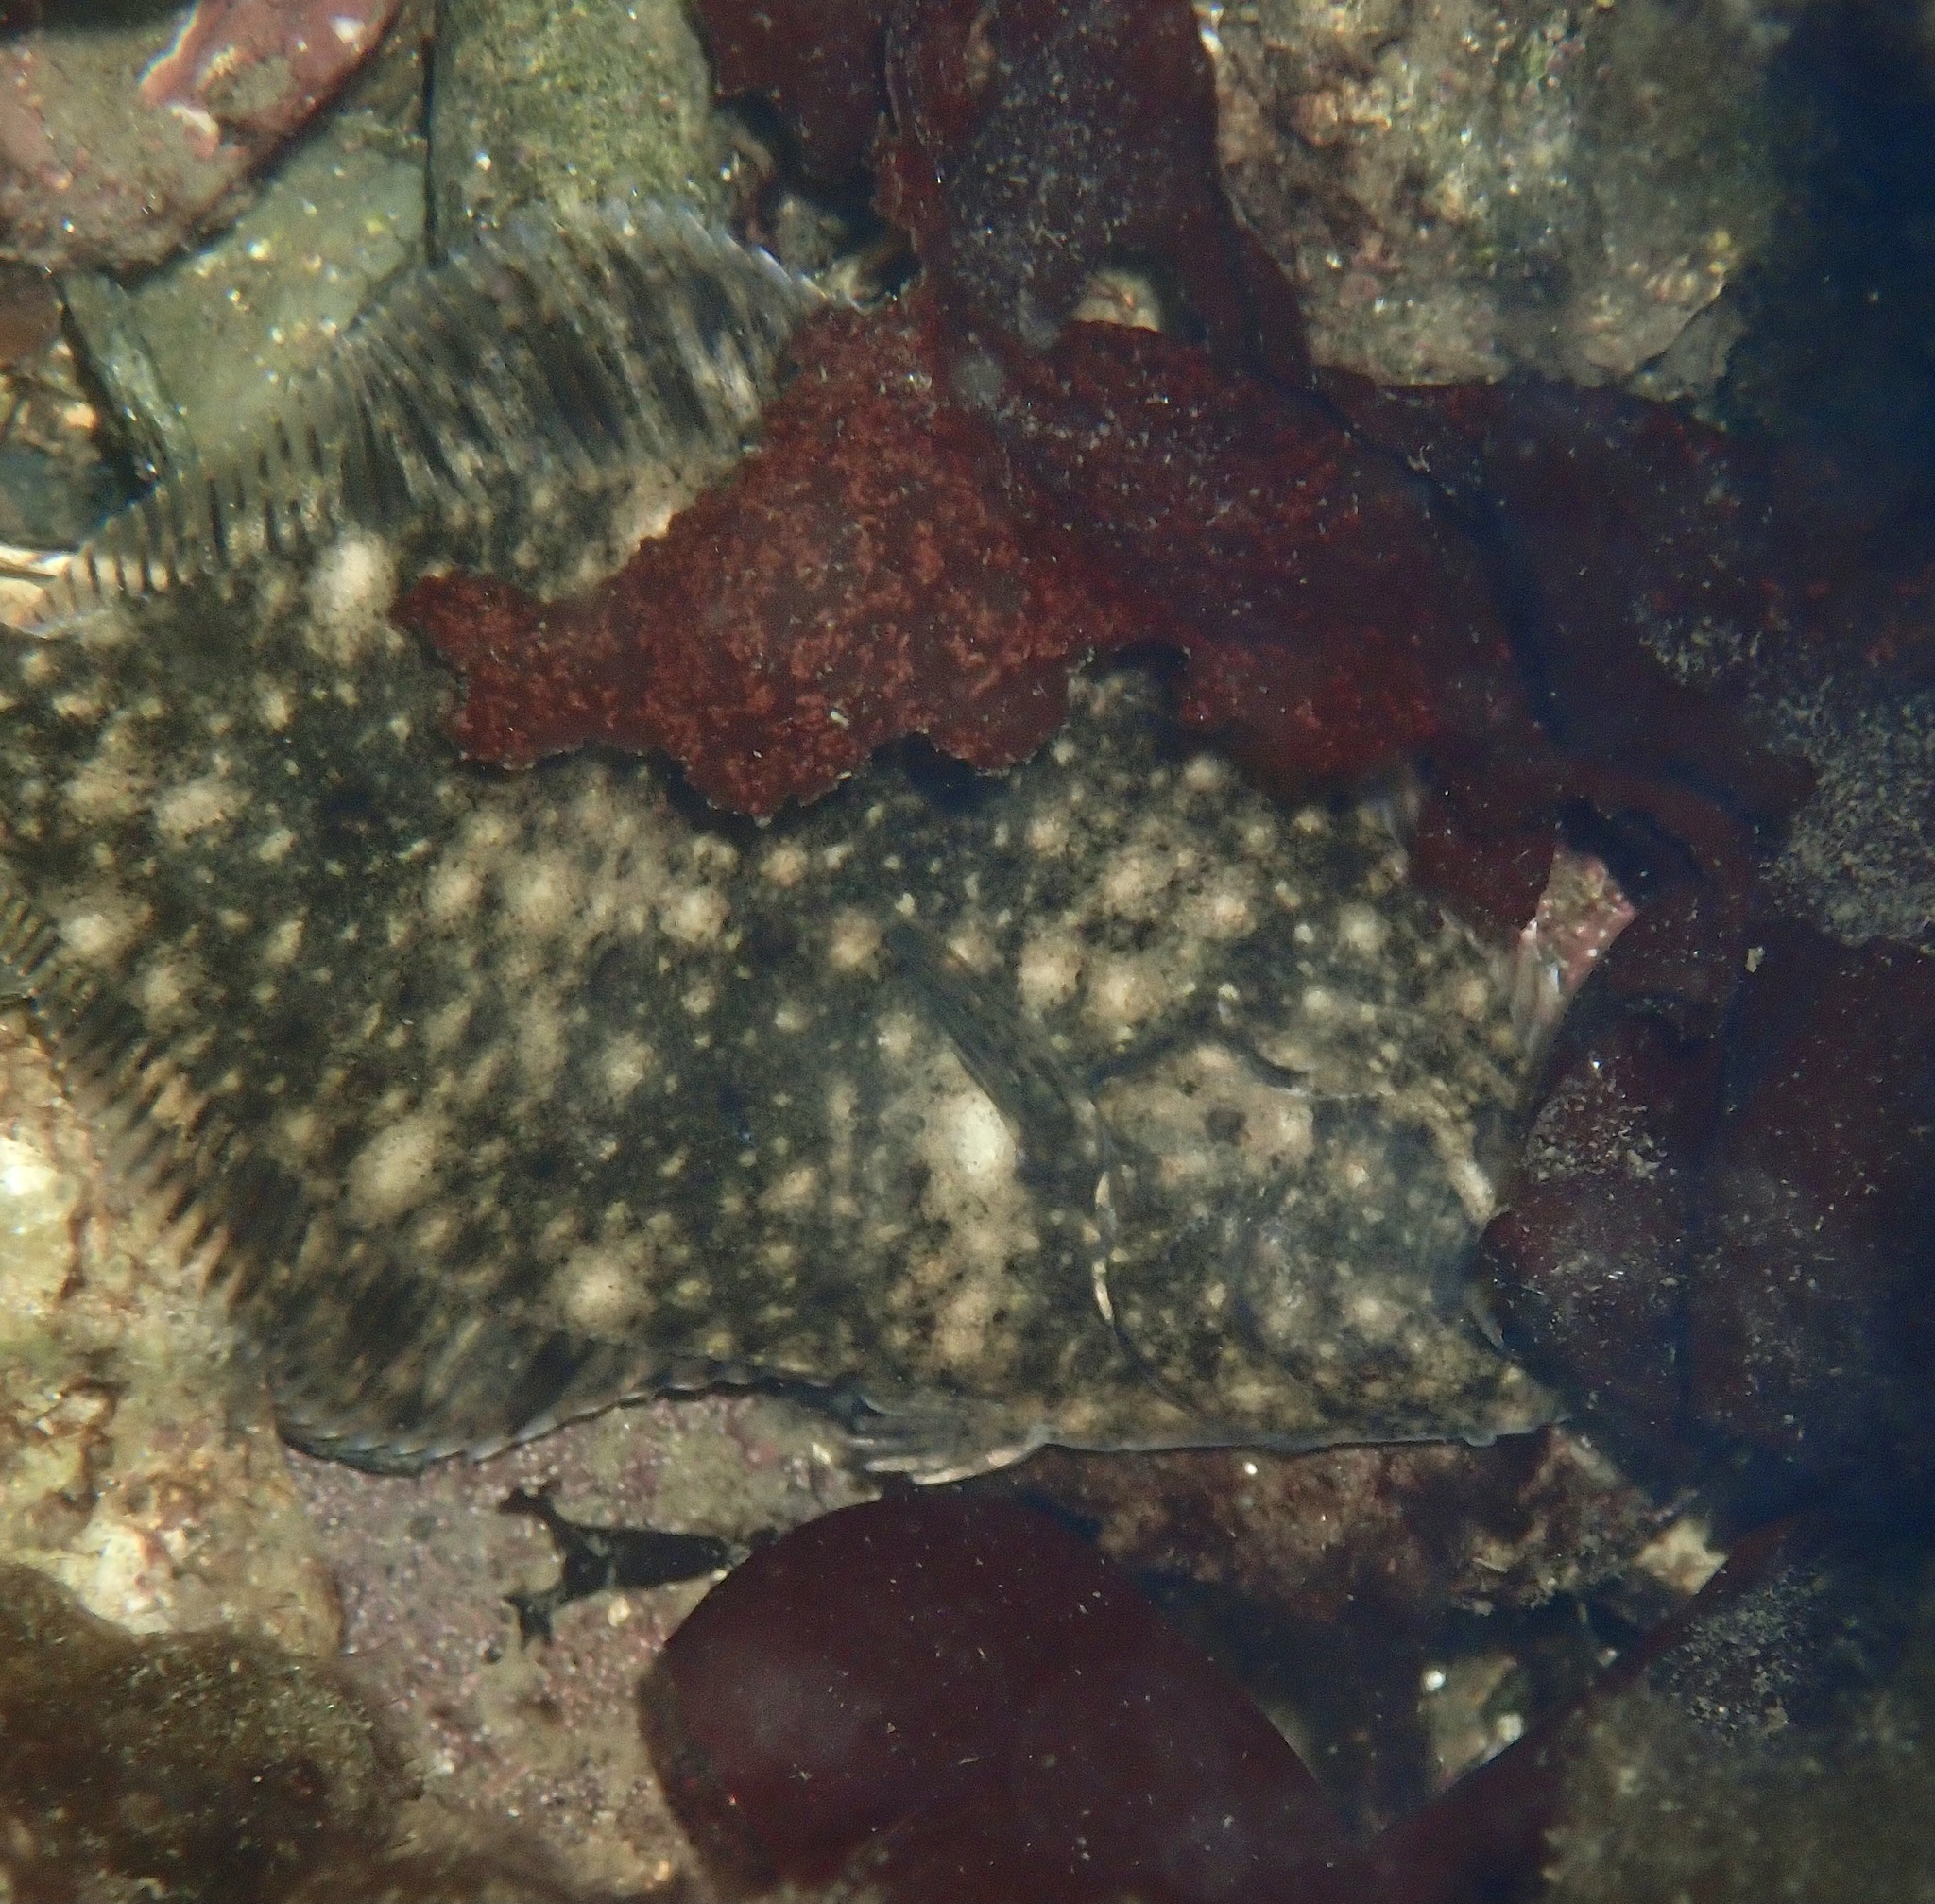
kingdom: Animalia
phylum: Chordata
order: Pleuronectiformes
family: Pleuronectidae
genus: Platichthys
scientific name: Platichthys flesus
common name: European flounder
